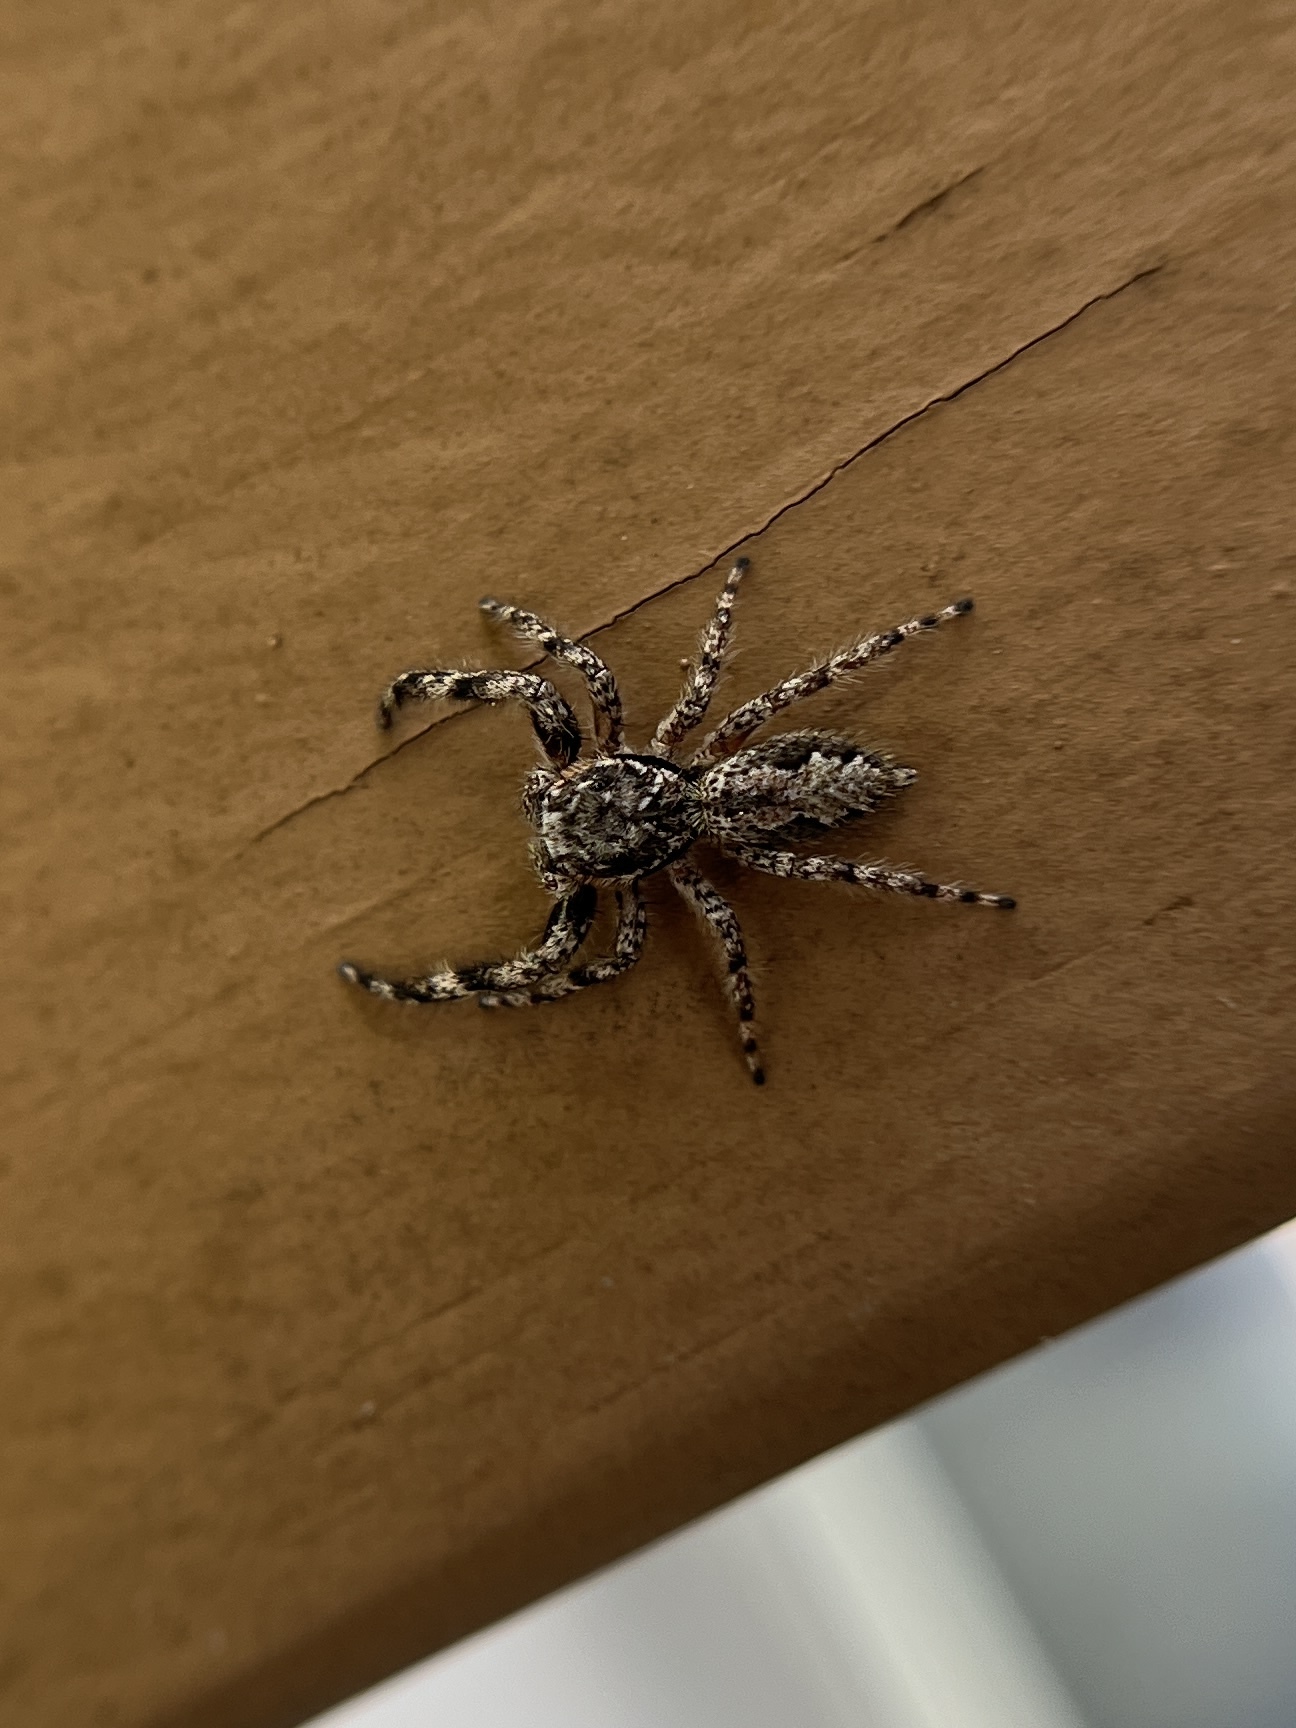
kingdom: Animalia
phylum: Arthropoda
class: Arachnida
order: Araneae
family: Salticidae
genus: Platycryptus
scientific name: Platycryptus undatus
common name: Tan jumping spider
